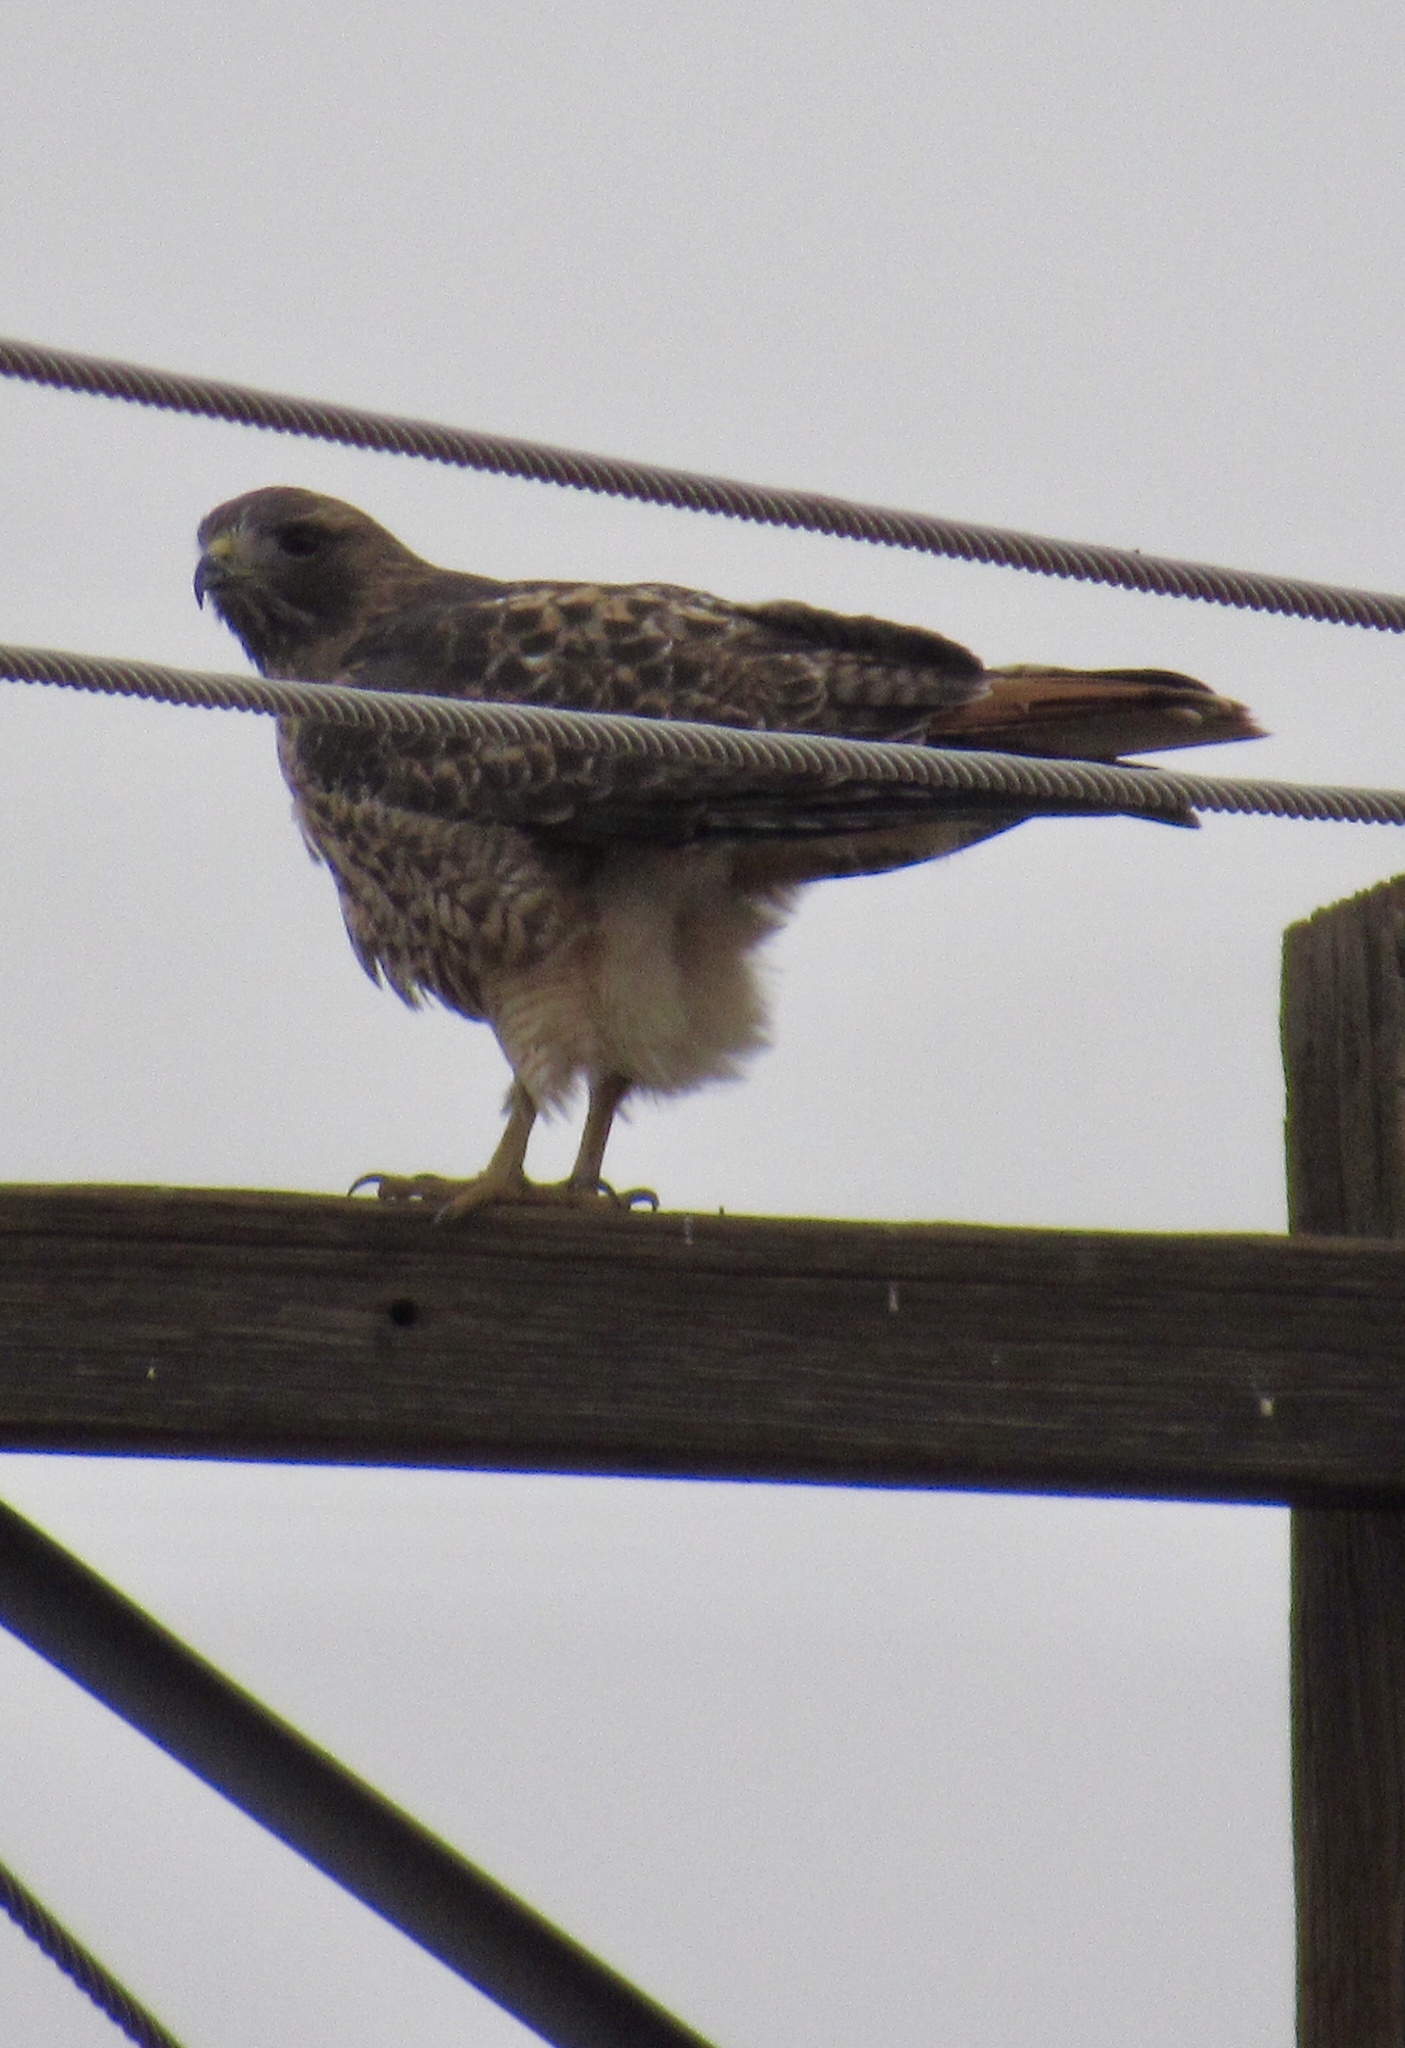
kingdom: Animalia
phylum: Chordata
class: Aves
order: Accipitriformes
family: Accipitridae
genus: Buteo
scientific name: Buteo jamaicensis
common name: Red-tailed hawk
